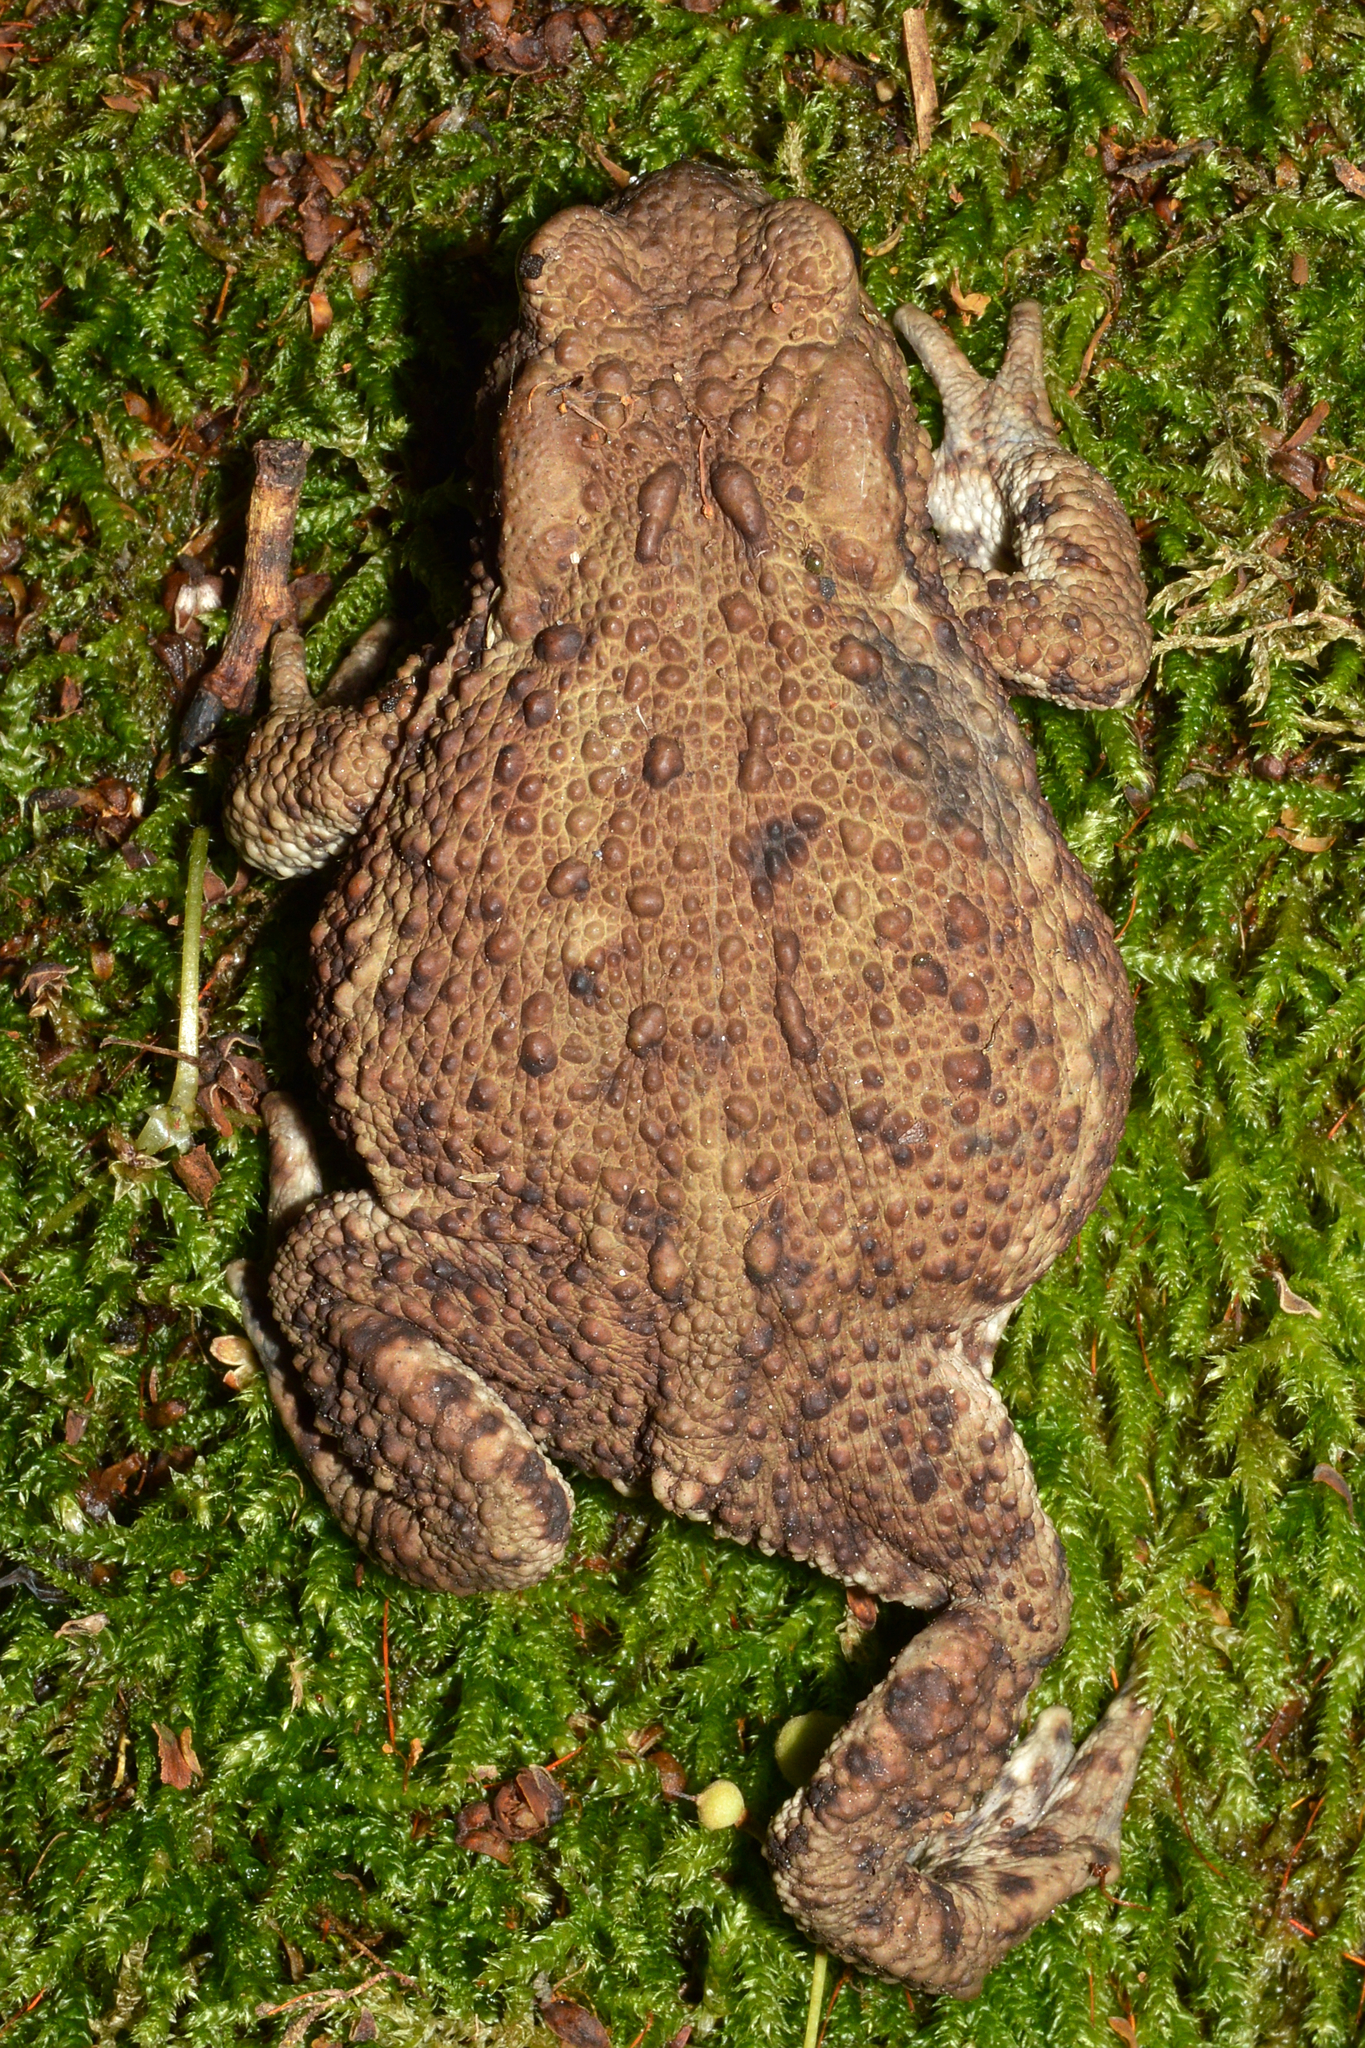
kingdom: Animalia
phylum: Chordata
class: Amphibia
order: Anura
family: Bufonidae
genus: Bufo
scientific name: Bufo bufo
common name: Common toad
